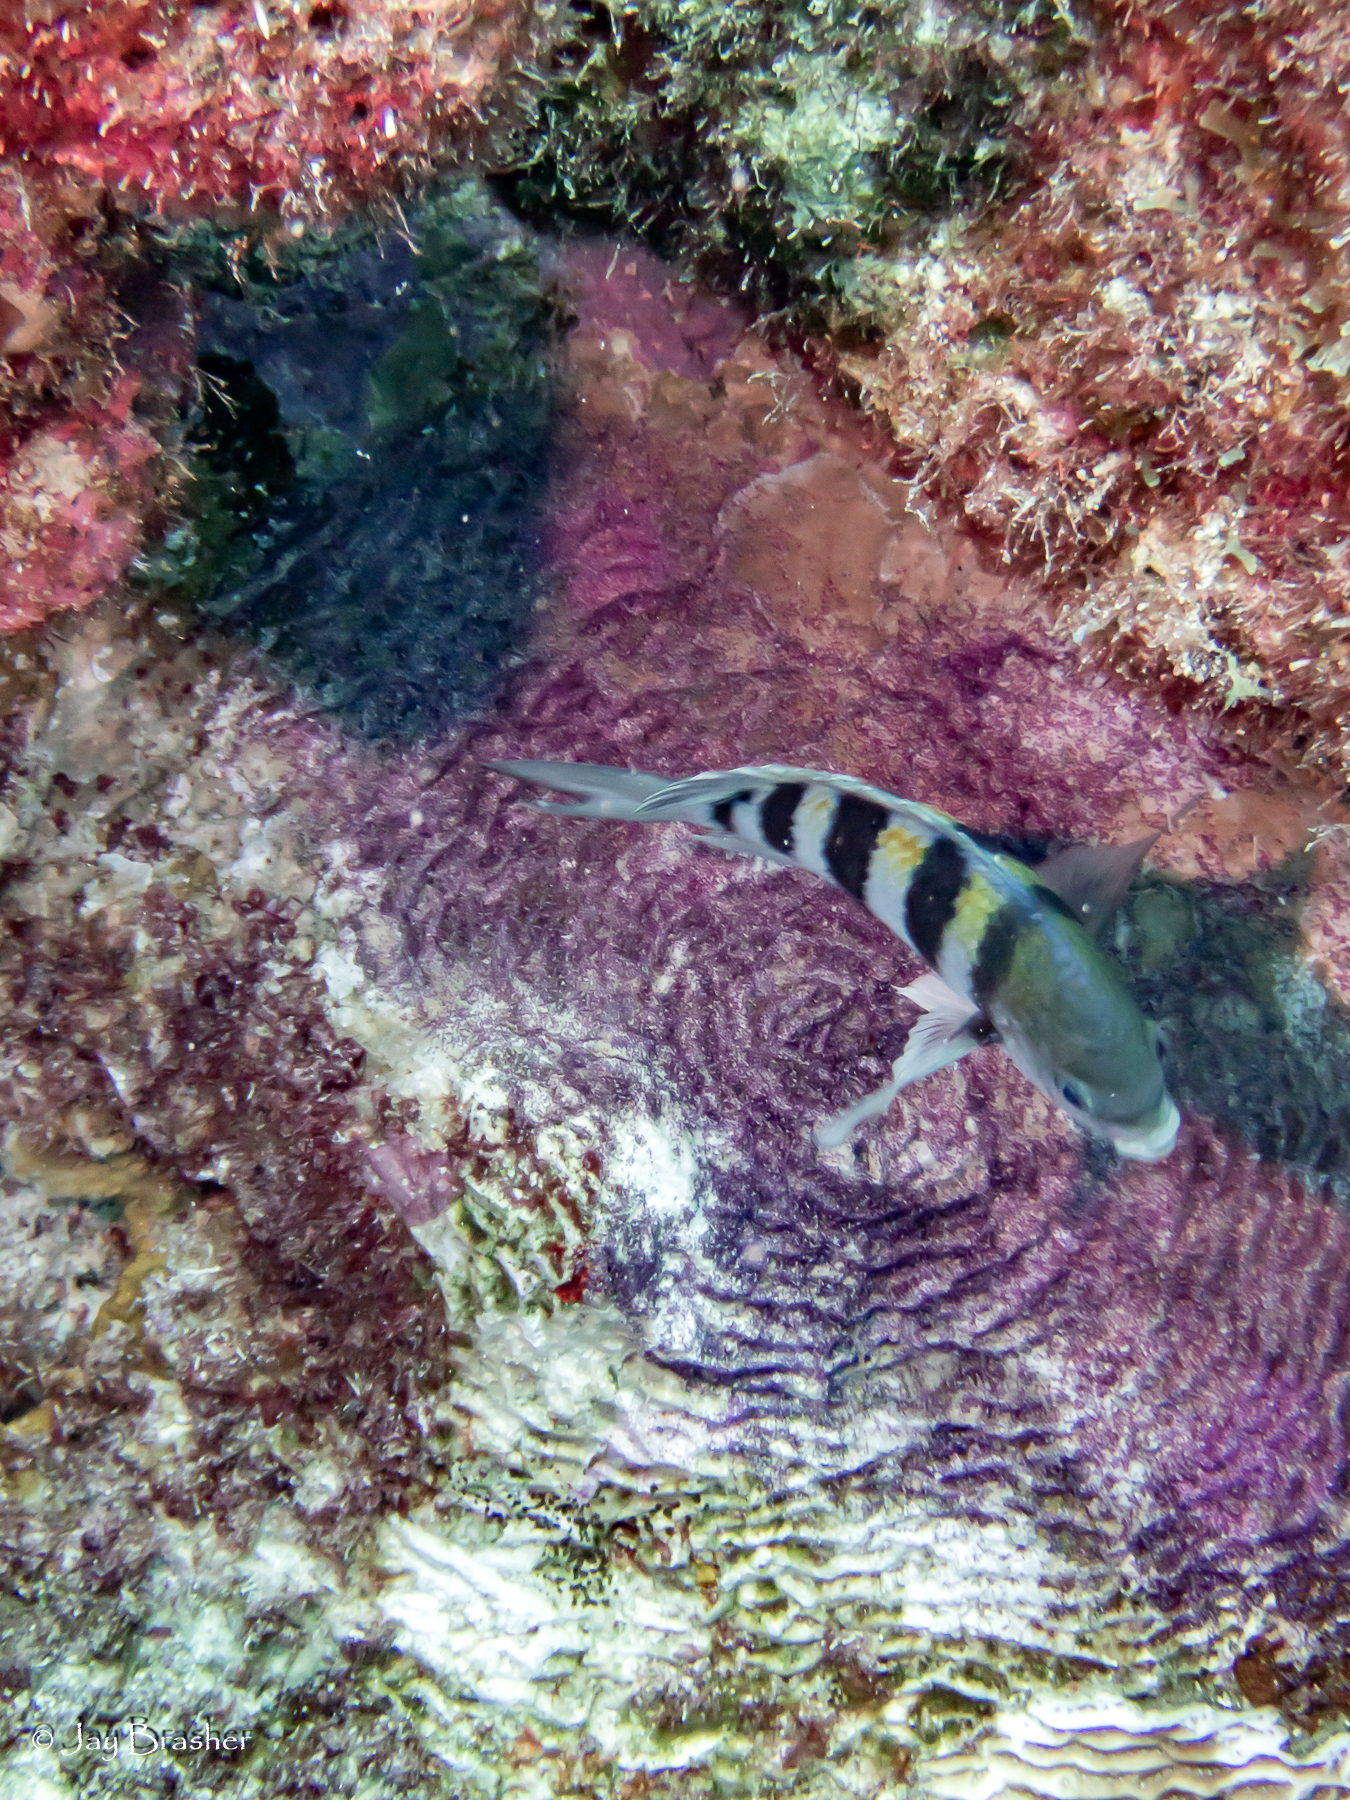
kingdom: Animalia
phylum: Chordata
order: Perciformes
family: Pomacentridae
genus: Abudefduf
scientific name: Abudefduf saxatilis
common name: Sergeant major
